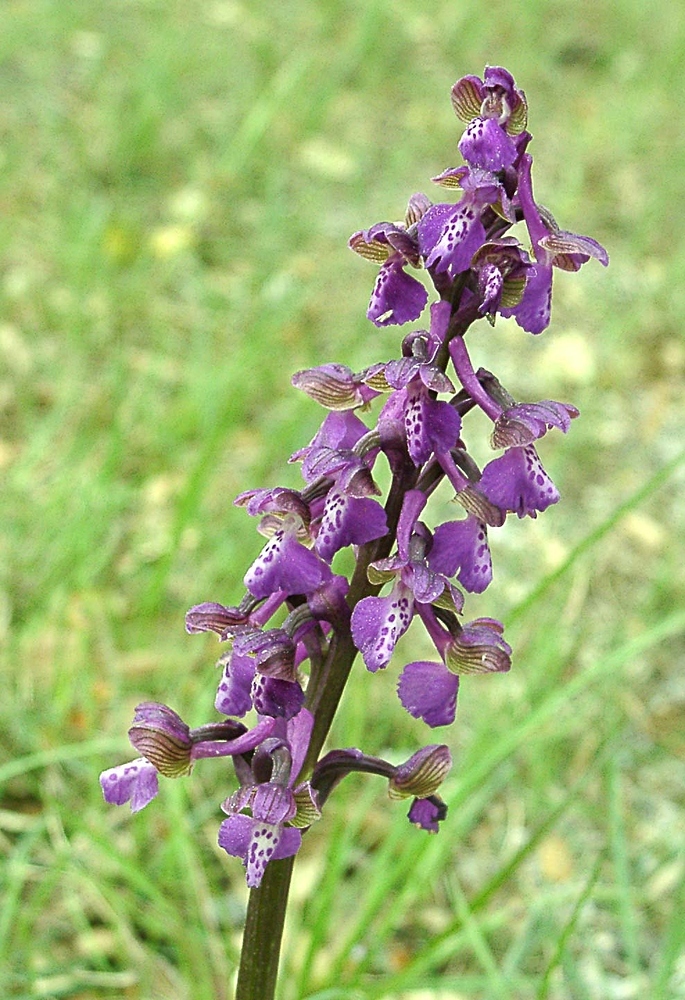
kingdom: Plantae
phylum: Tracheophyta
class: Liliopsida
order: Asparagales
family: Orchidaceae
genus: Anacamptis
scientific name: Anacamptis morio
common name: Green-winged orchid
